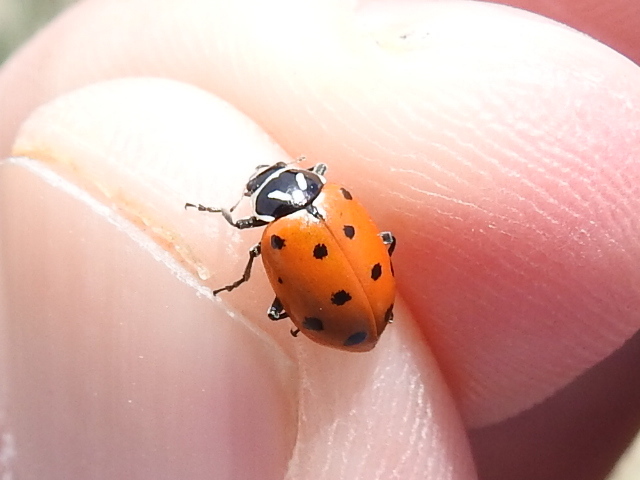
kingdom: Animalia
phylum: Arthropoda
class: Insecta
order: Coleoptera
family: Coccinellidae
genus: Hippodamia
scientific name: Hippodamia convergens
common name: Convergent lady beetle
